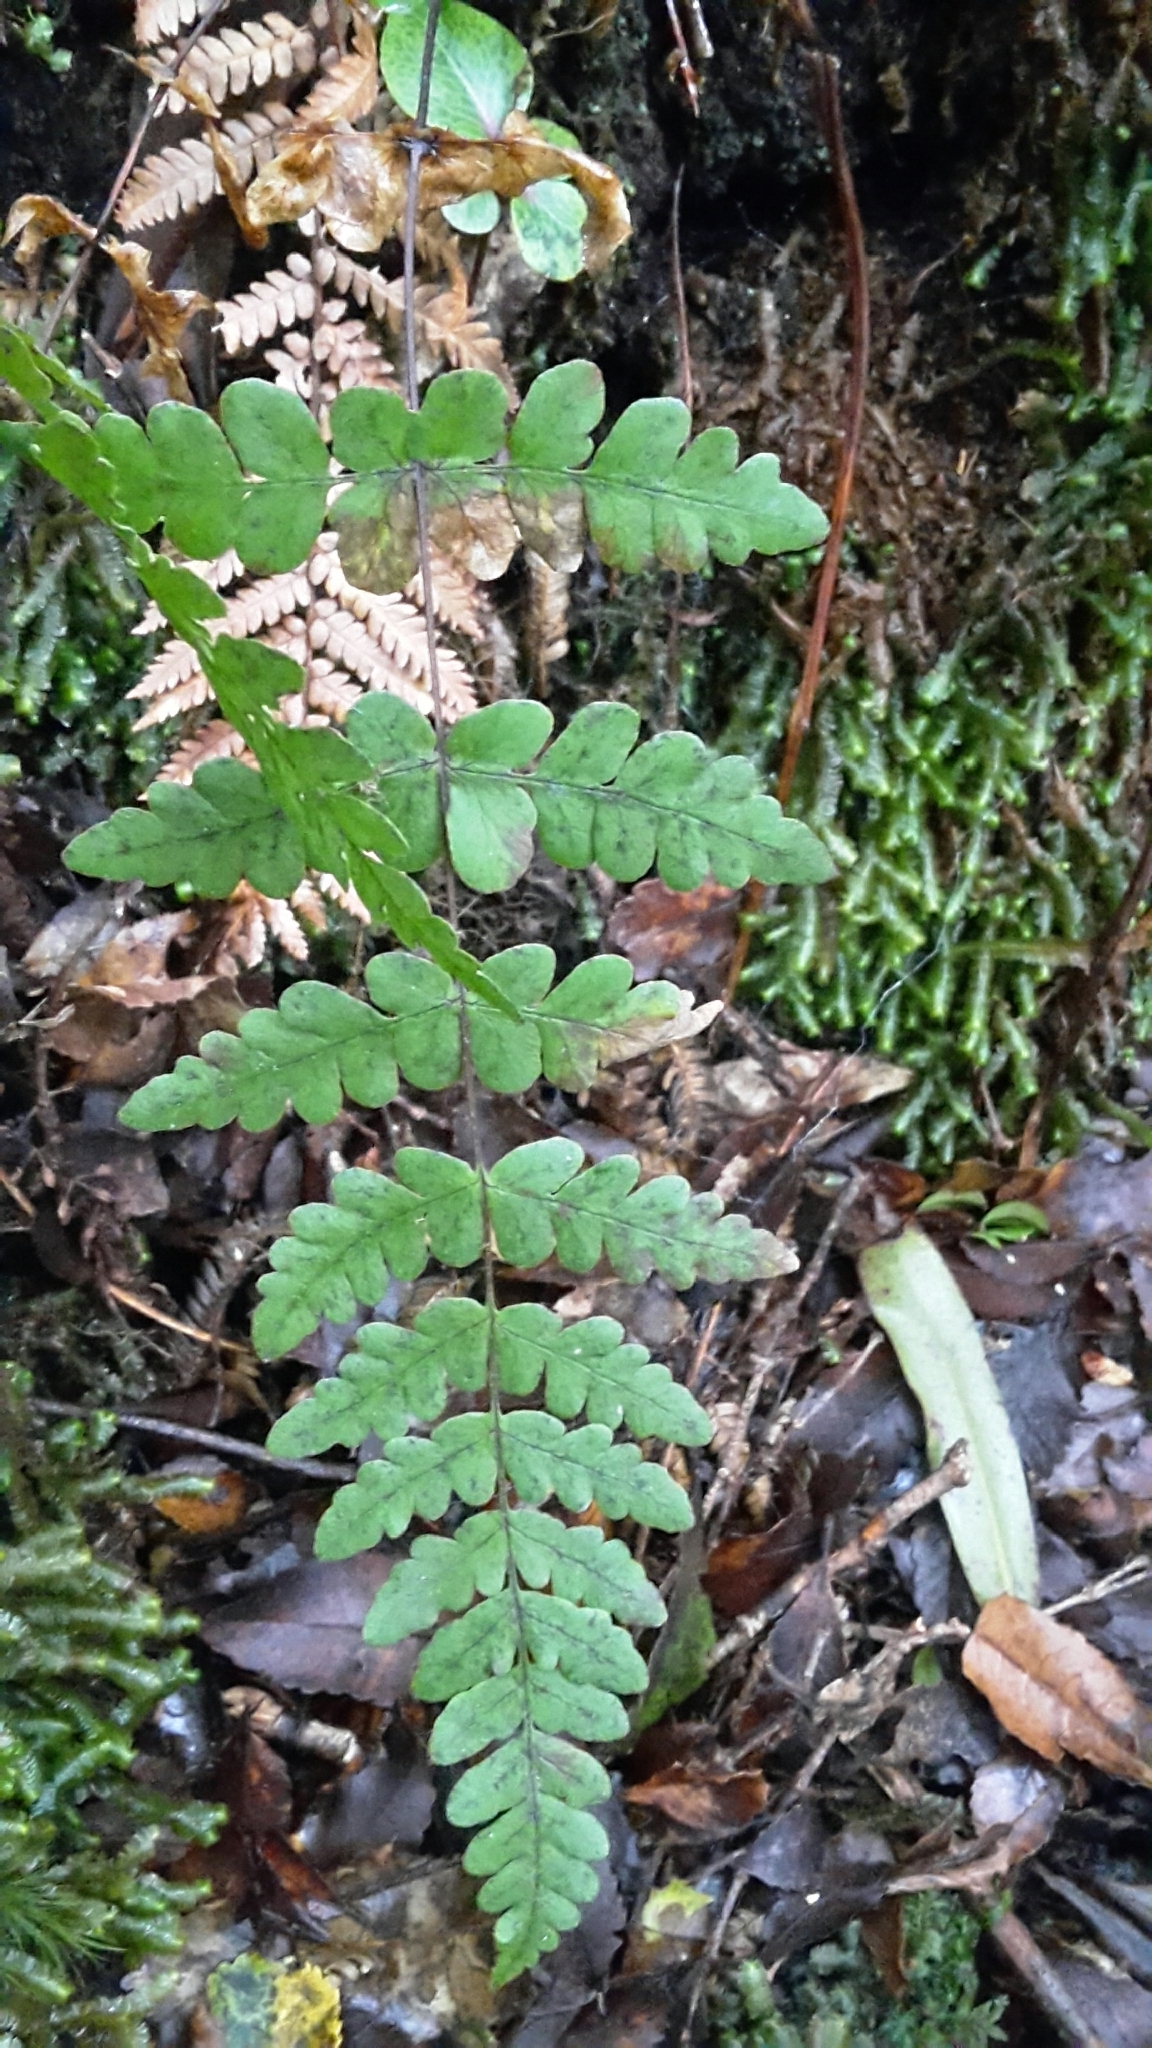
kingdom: Plantae
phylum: Tracheophyta
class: Polypodiopsida
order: Polypodiales
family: Dennstaedtiaceae
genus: Histiopteris
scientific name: Histiopteris incisa
